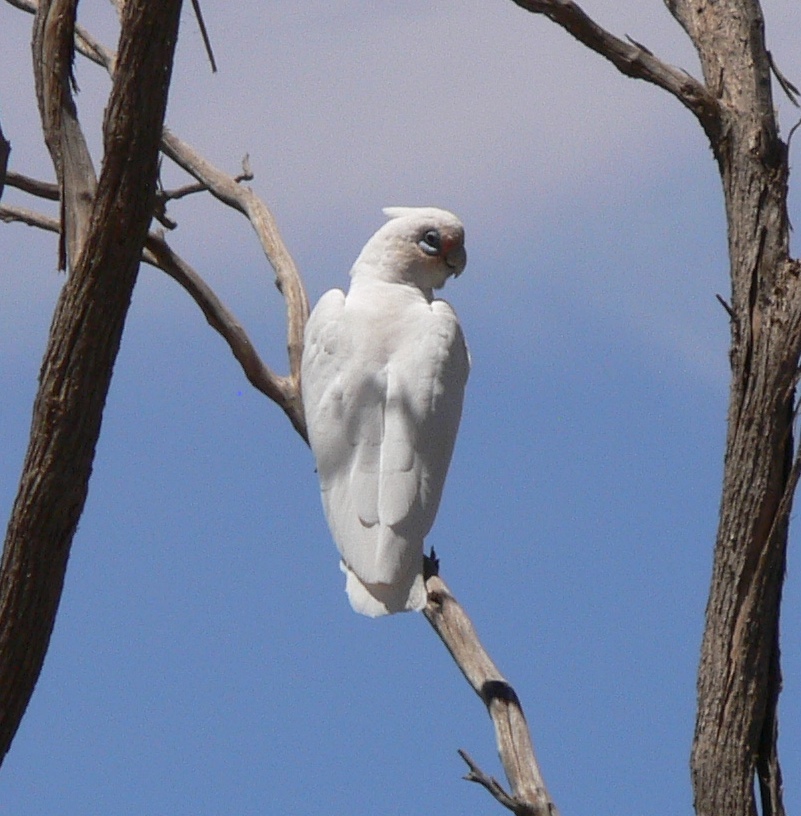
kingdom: Animalia
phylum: Chordata
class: Aves
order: Psittaciformes
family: Psittacidae
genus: Cacatua
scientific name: Cacatua sanguinea
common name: Little corella
